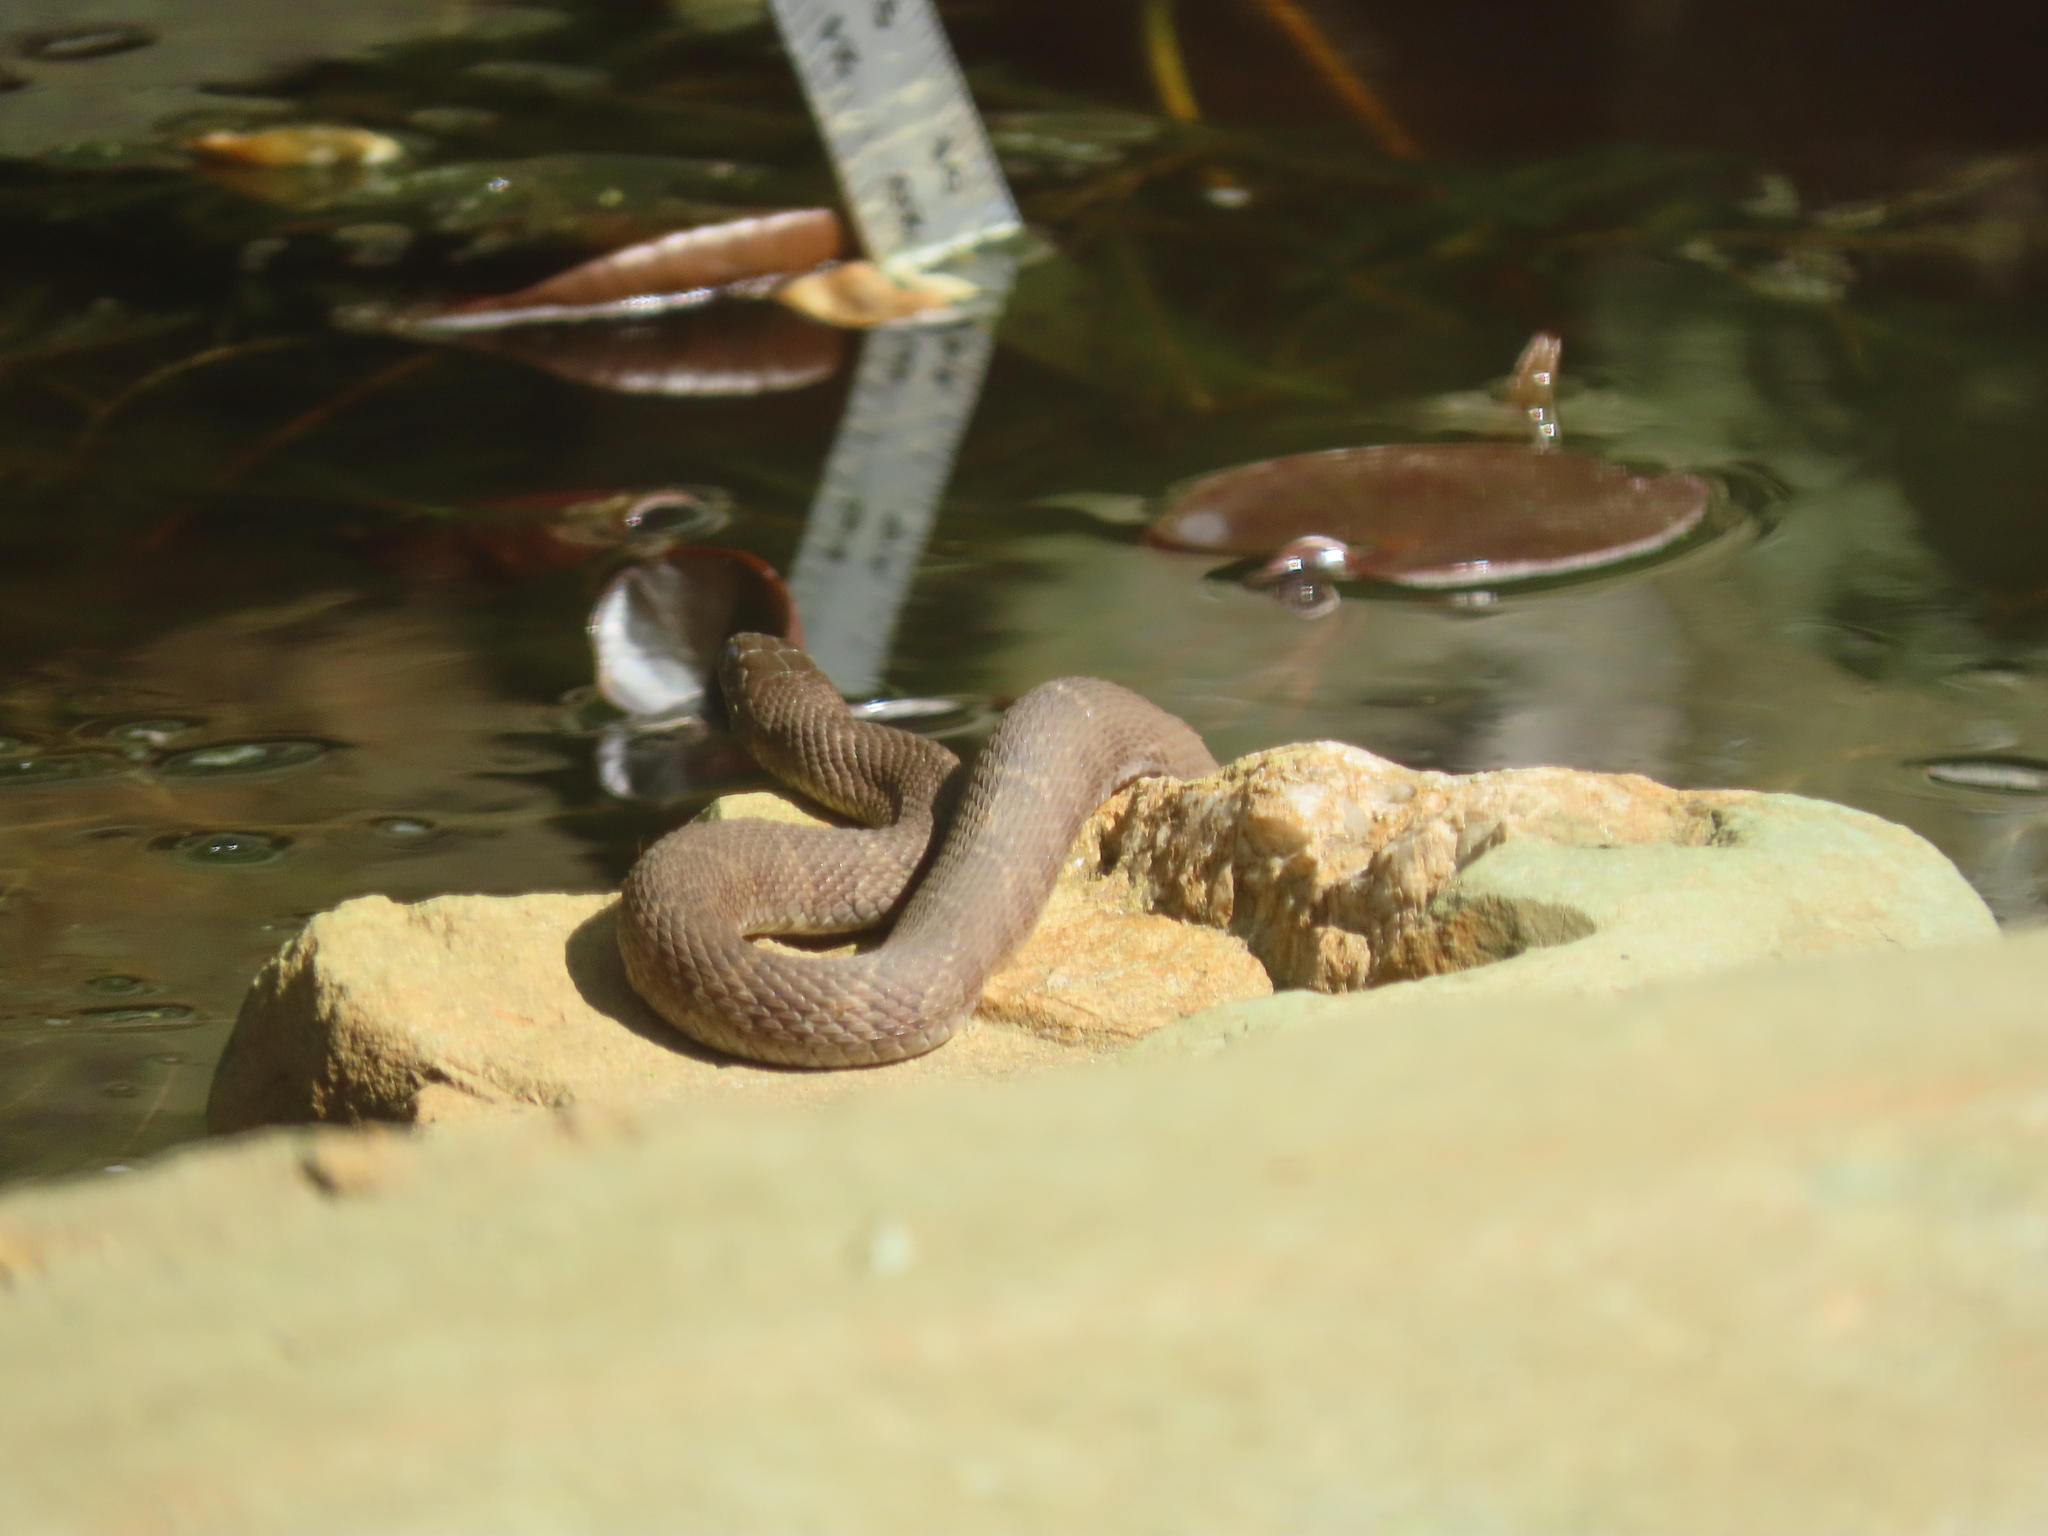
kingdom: Animalia
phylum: Chordata
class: Squamata
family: Colubridae
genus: Nerodia
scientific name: Nerodia sipedon
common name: Northern water snake
